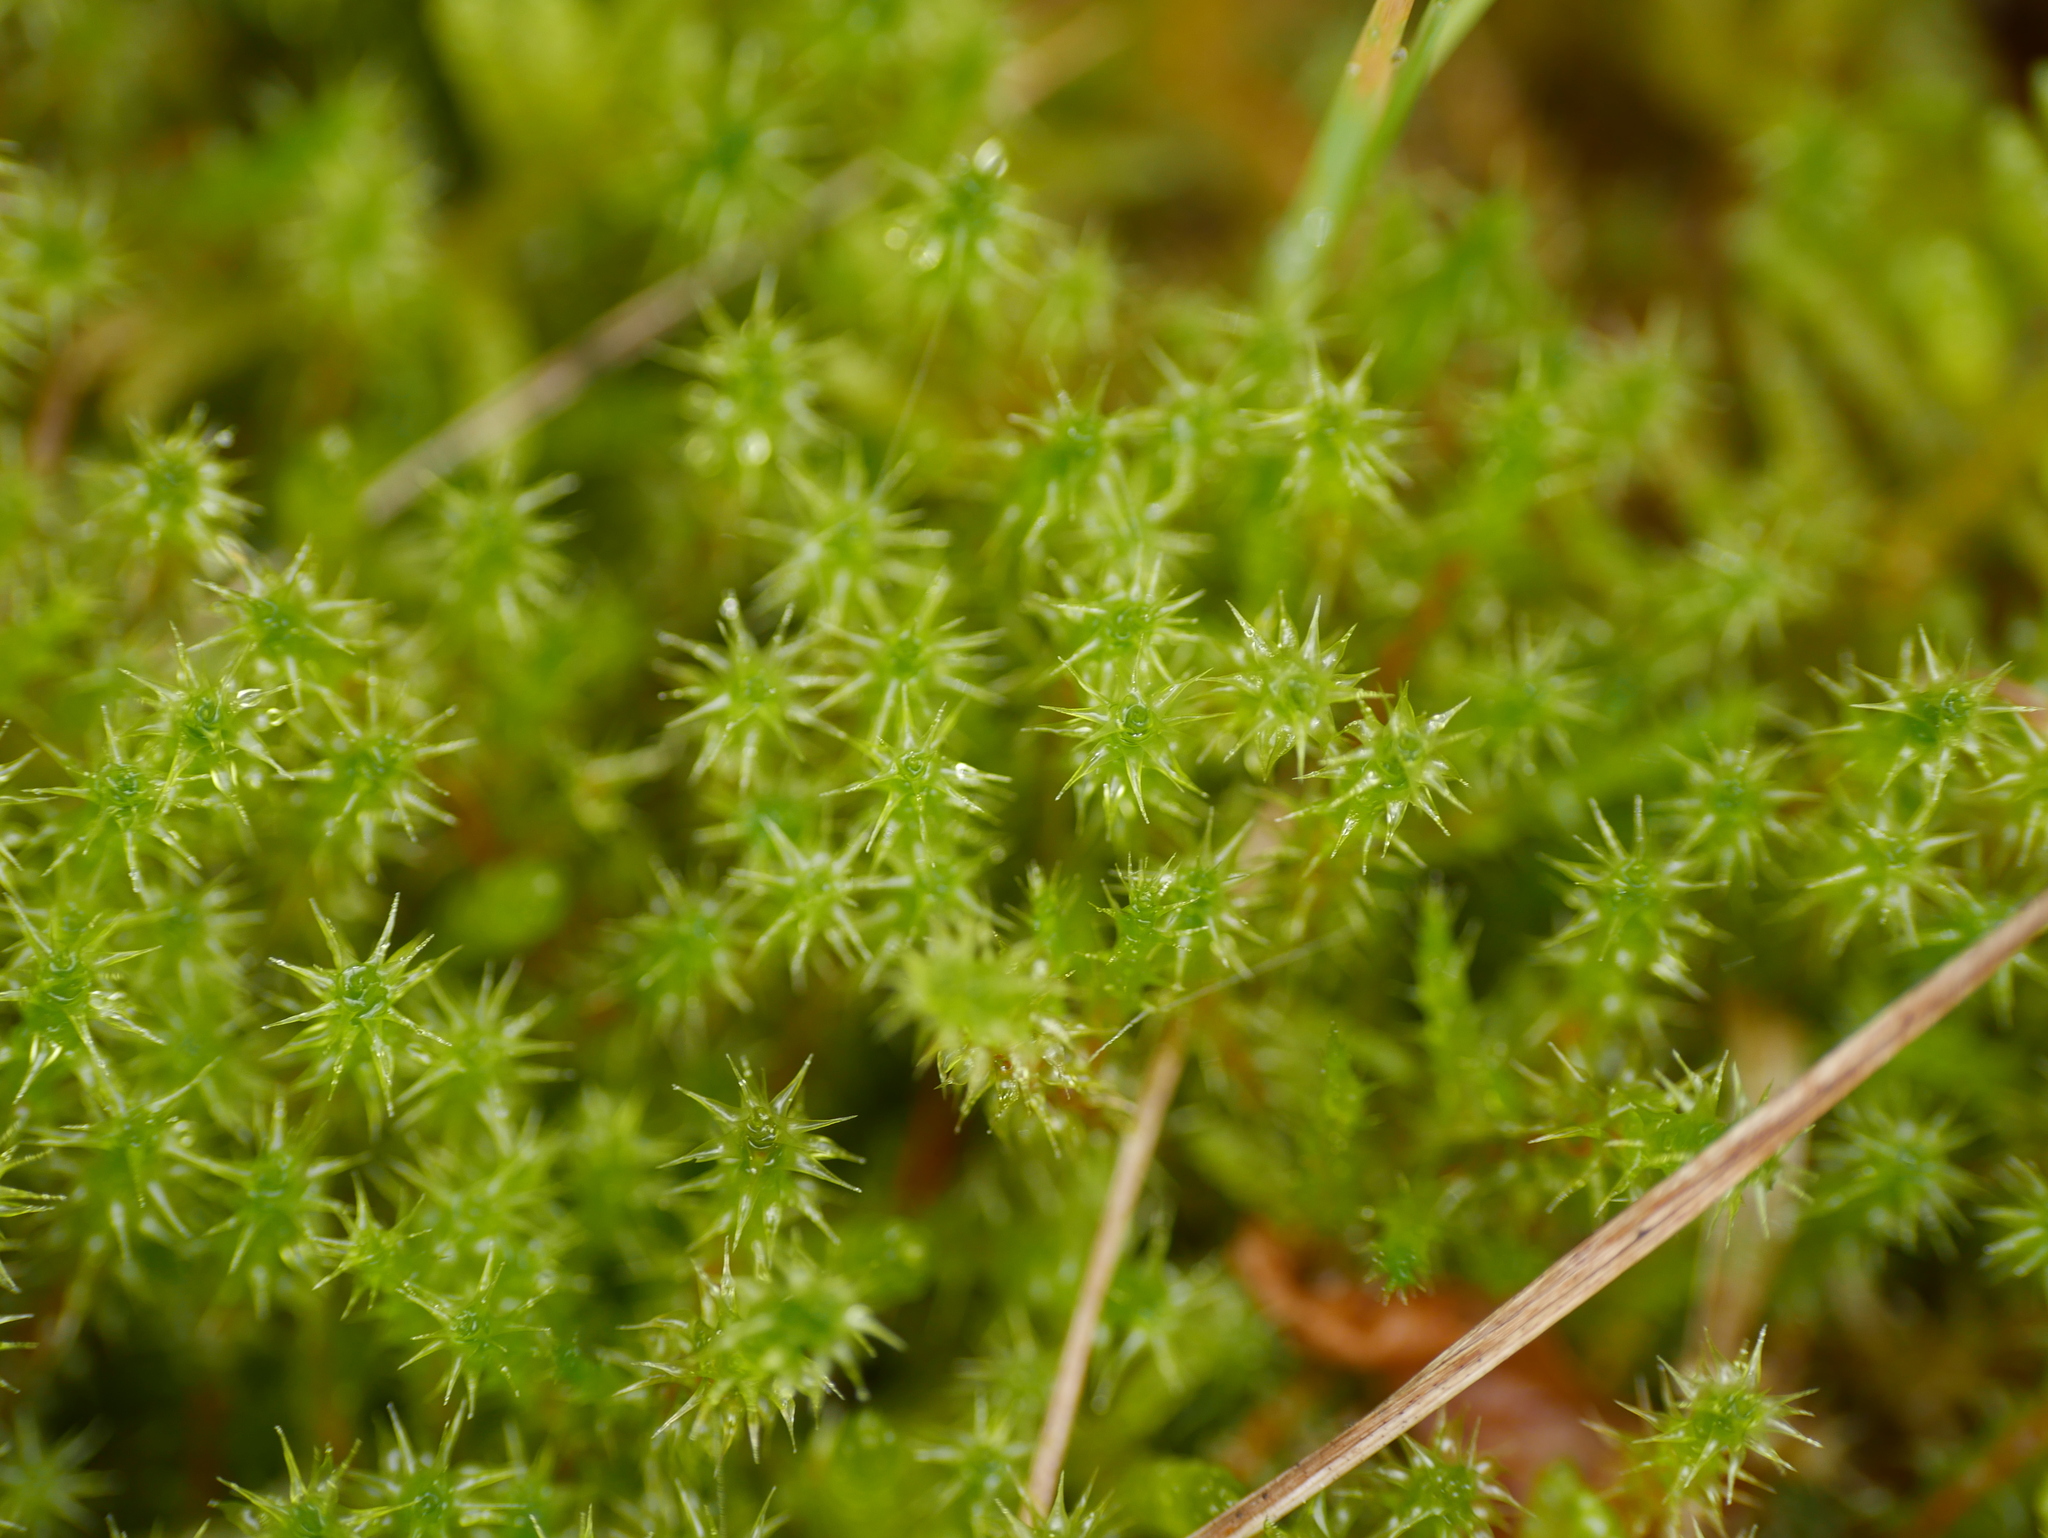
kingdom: Plantae
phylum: Bryophyta
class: Bryopsida
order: Hypnales
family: Hylocomiaceae
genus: Rhytidiadelphus
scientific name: Rhytidiadelphus squarrosus
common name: Springy turf-moss
